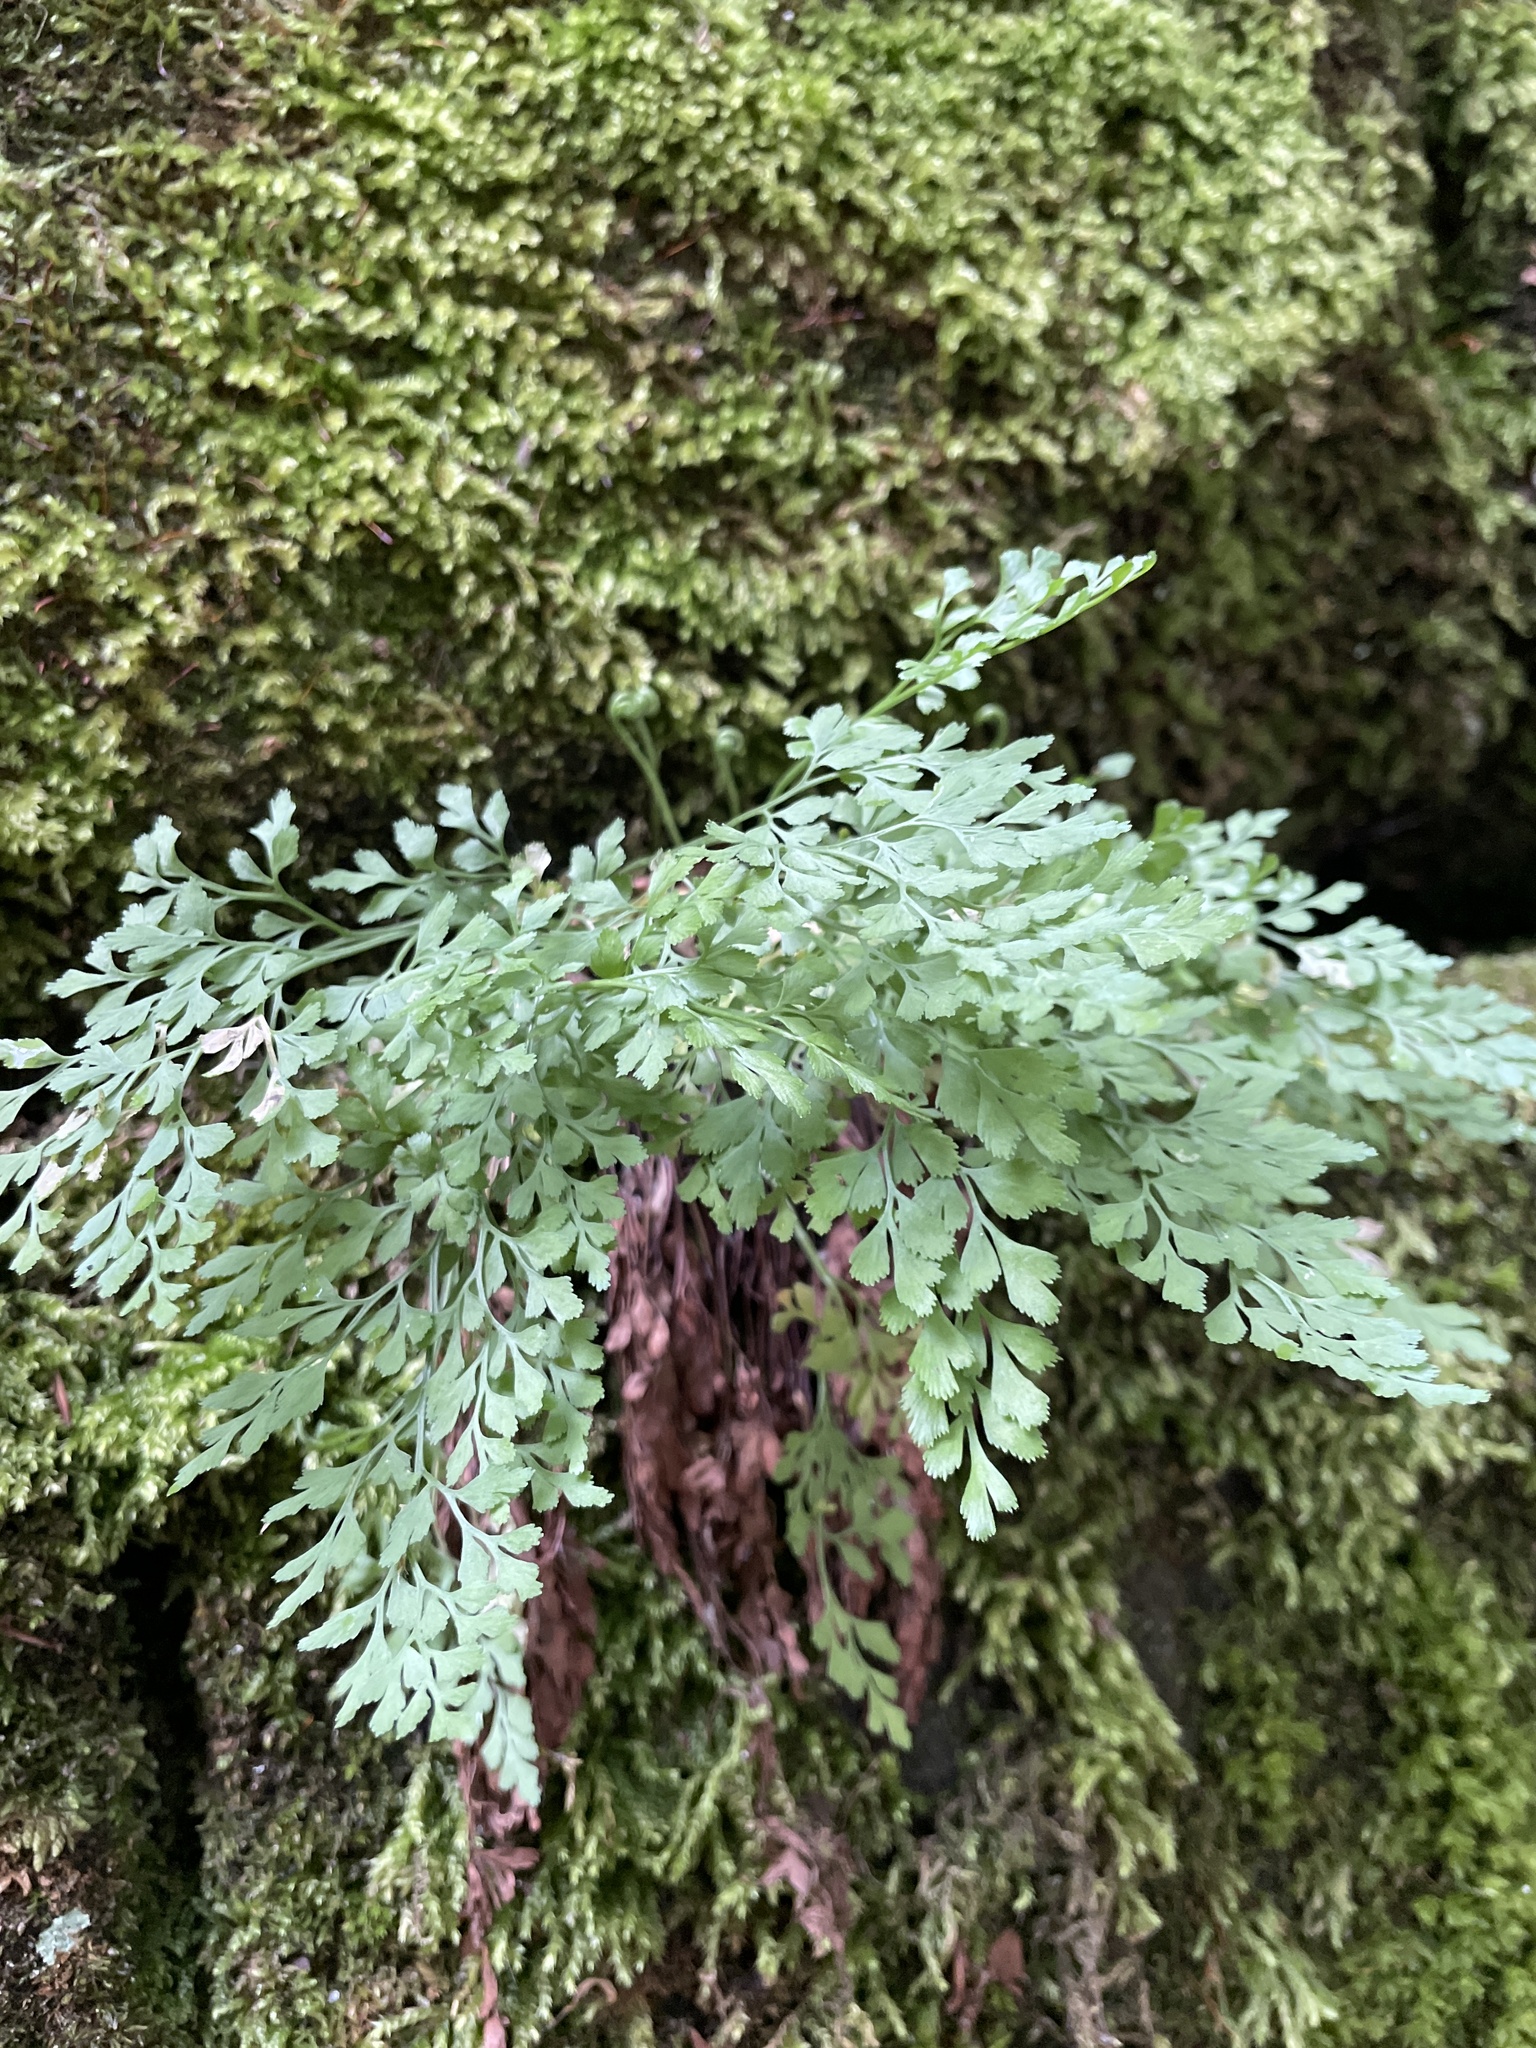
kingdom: Plantae
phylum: Tracheophyta
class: Polypodiopsida
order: Polypodiales
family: Aspleniaceae
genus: Asplenium
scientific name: Asplenium ruta-muraria
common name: Wall-rue
